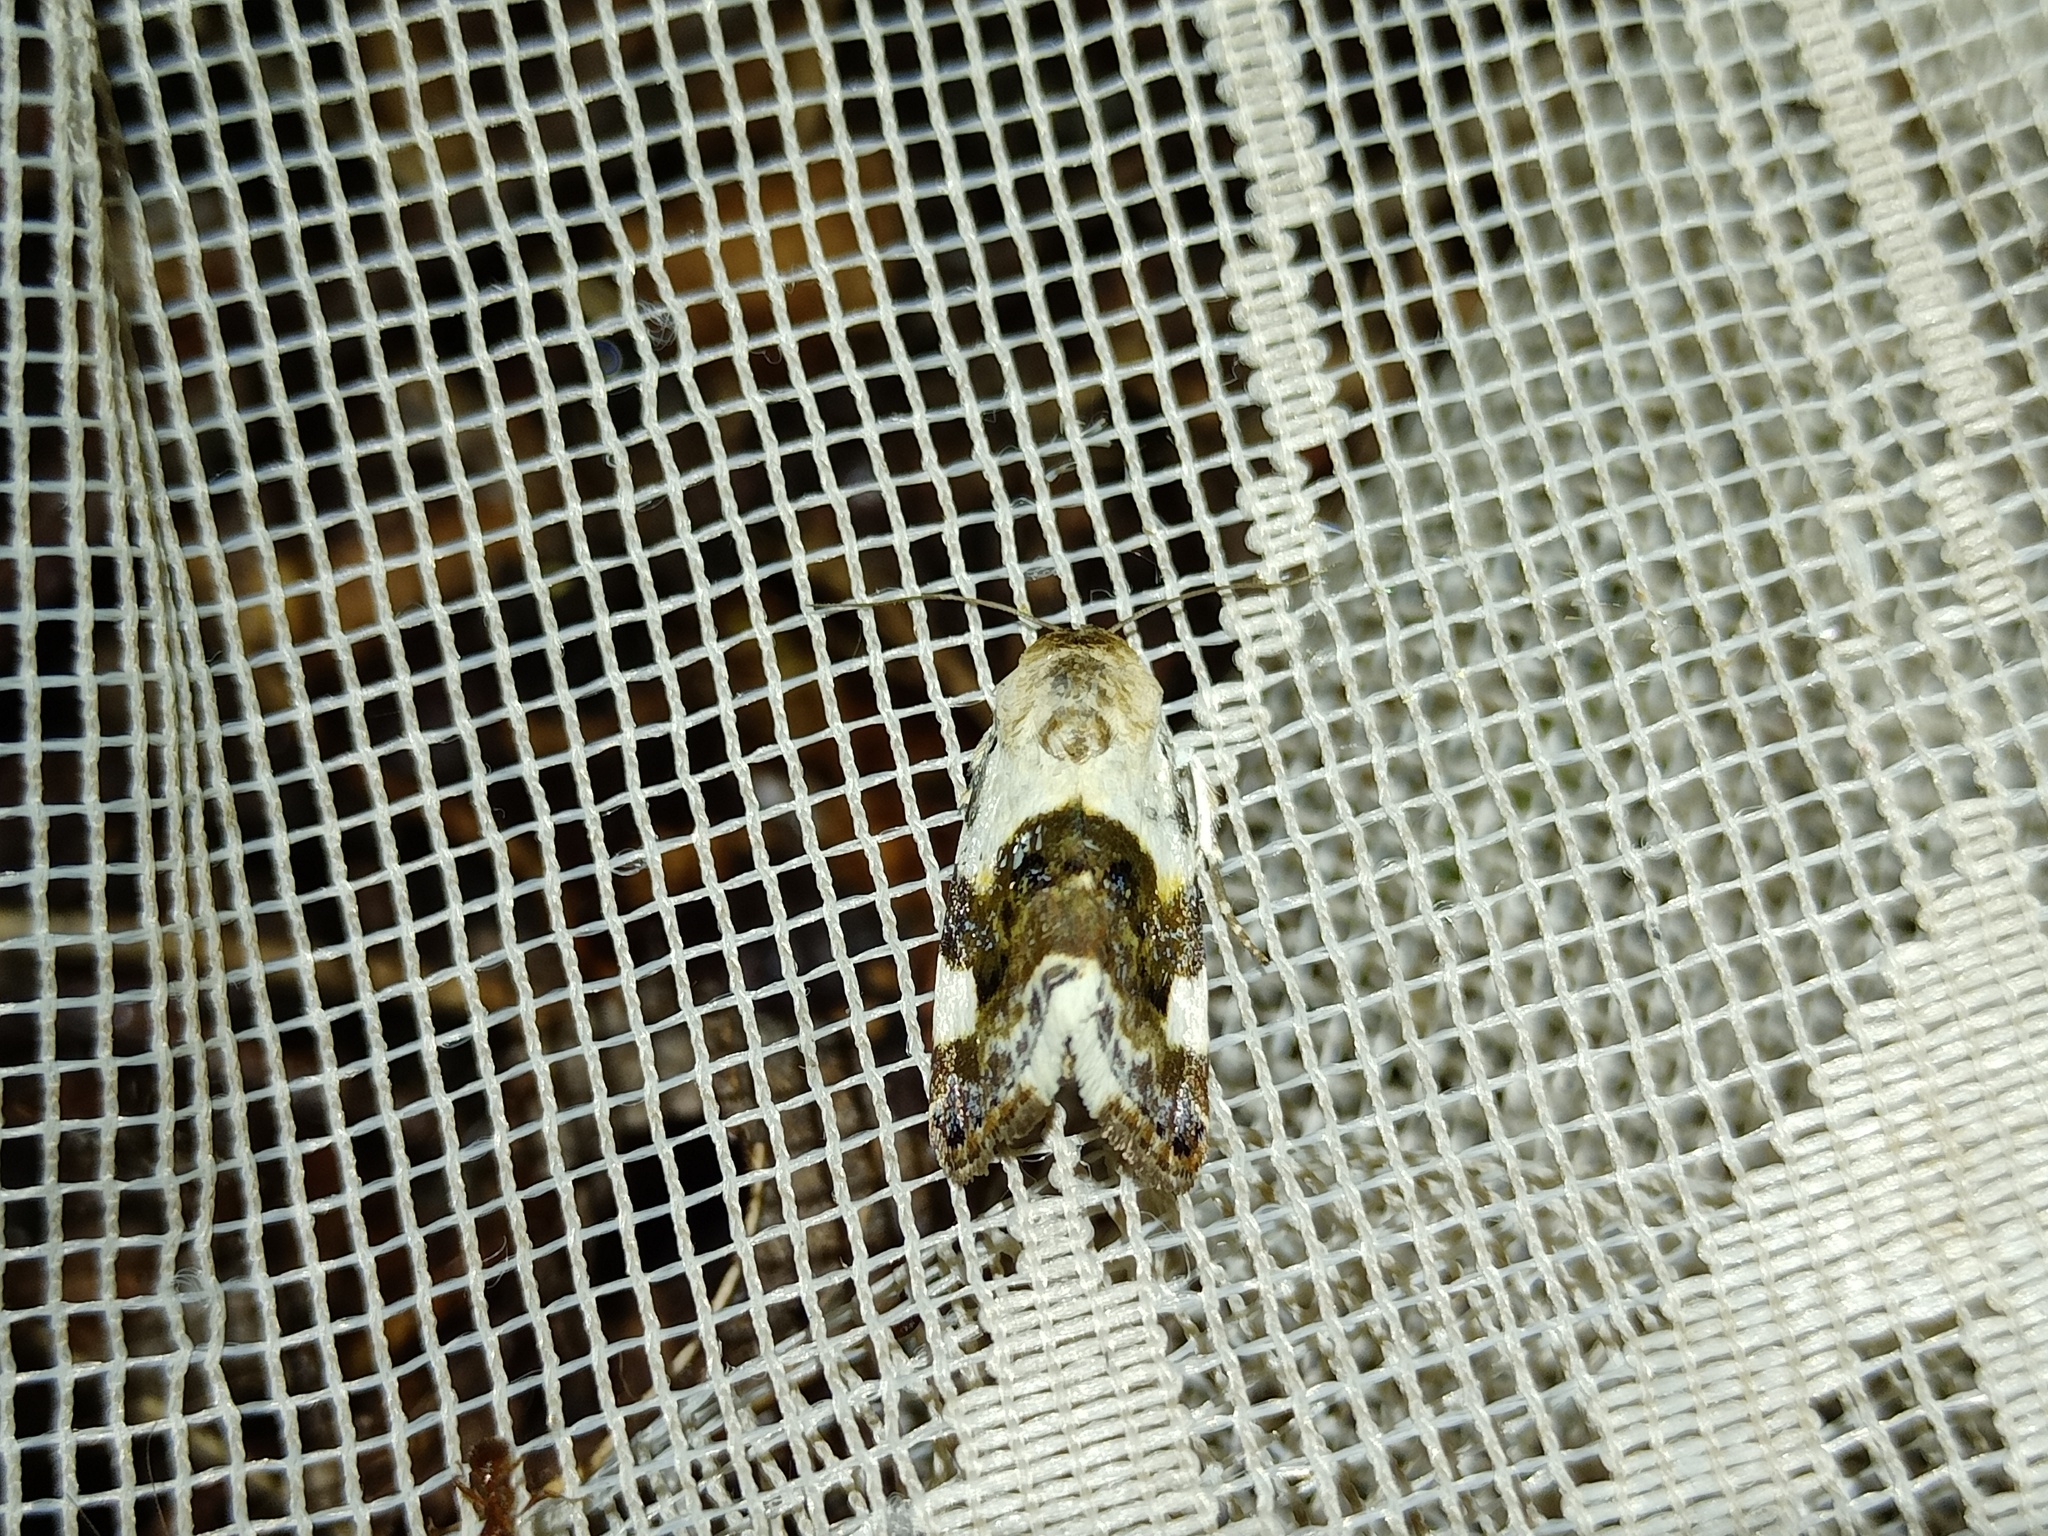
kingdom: Animalia
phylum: Arthropoda
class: Insecta
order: Lepidoptera
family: Noctuidae
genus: Acontia
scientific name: Acontia lucida
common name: Pale shoulder
